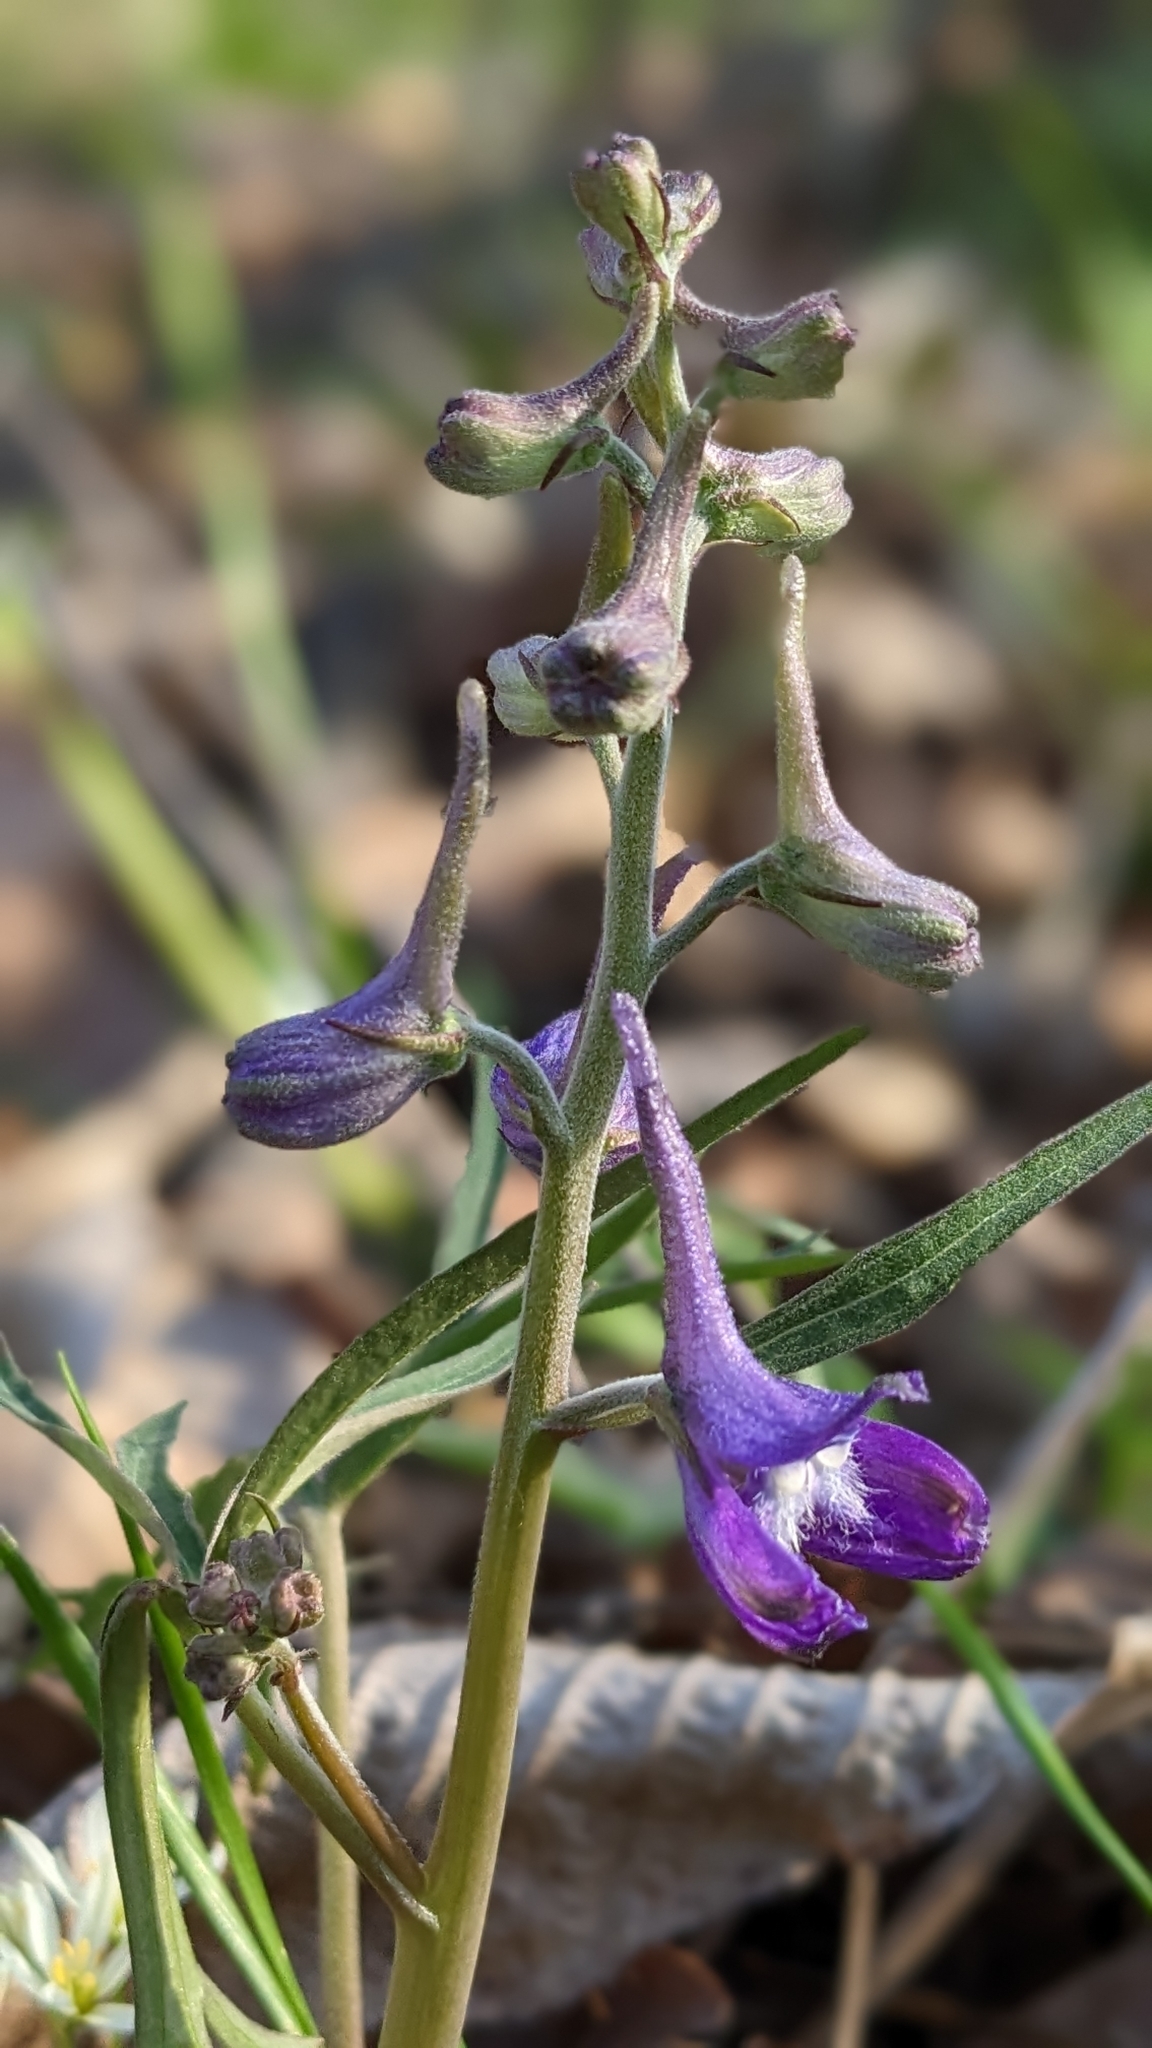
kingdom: Plantae
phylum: Tracheophyta
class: Magnoliopsida
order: Ranunculales
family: Ranunculaceae
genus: Delphinium
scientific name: Delphinium tricorne
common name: Dwarf larkspur
